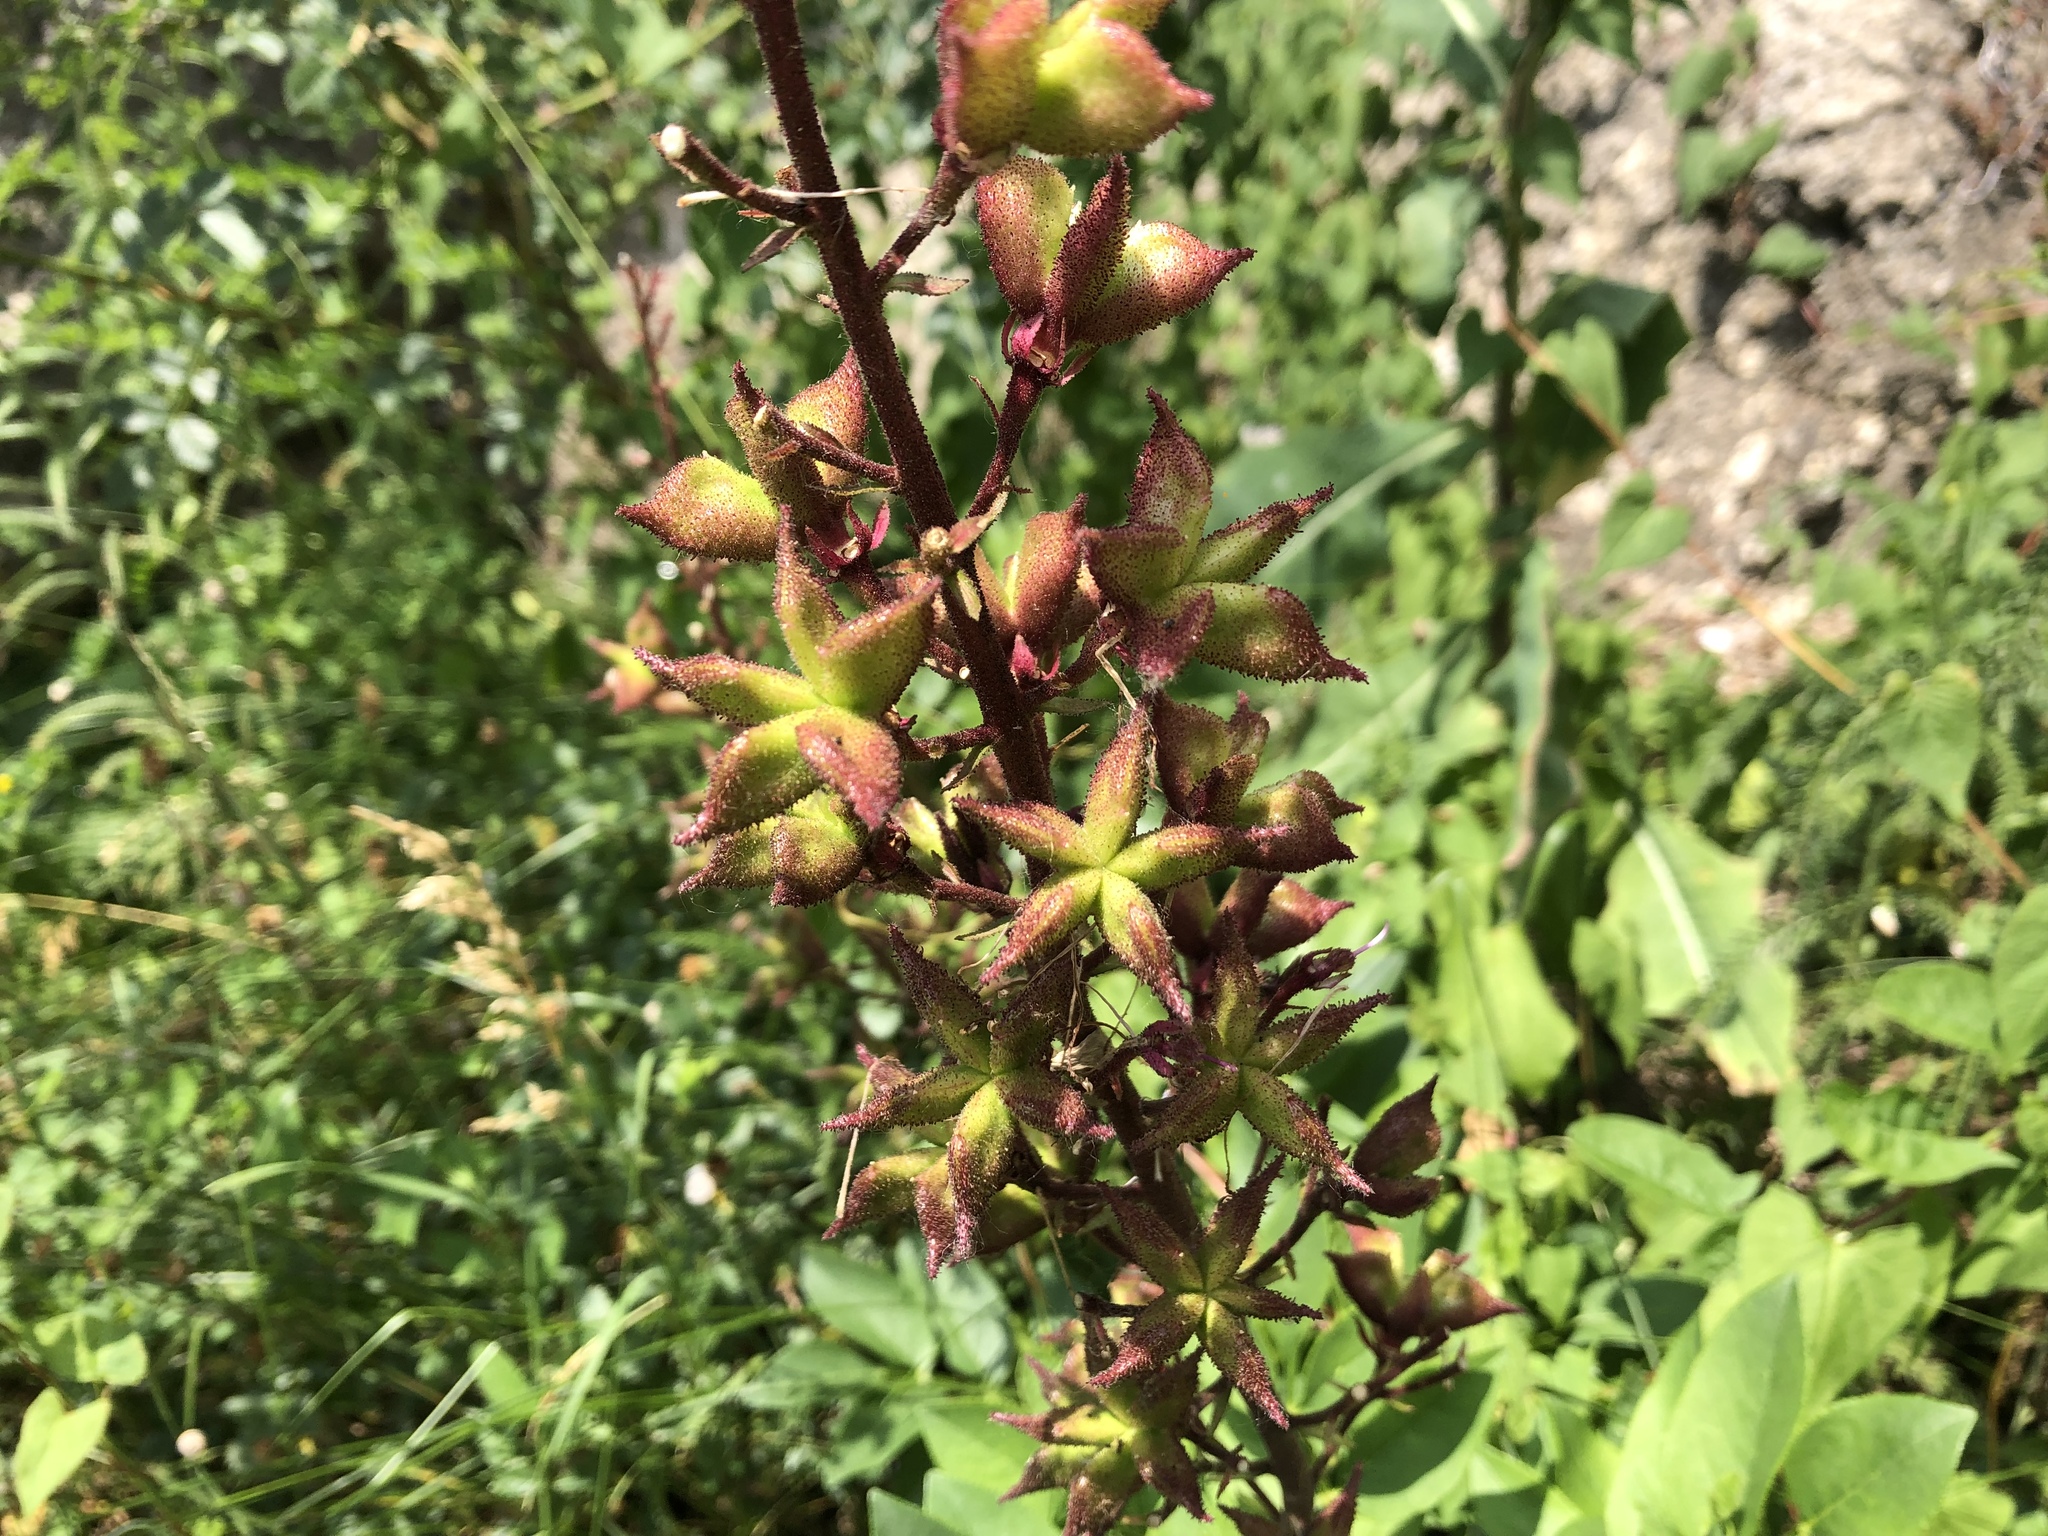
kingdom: Plantae
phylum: Tracheophyta
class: Magnoliopsida
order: Sapindales
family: Rutaceae
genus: Dictamnus
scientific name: Dictamnus albus
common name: Gasplant
